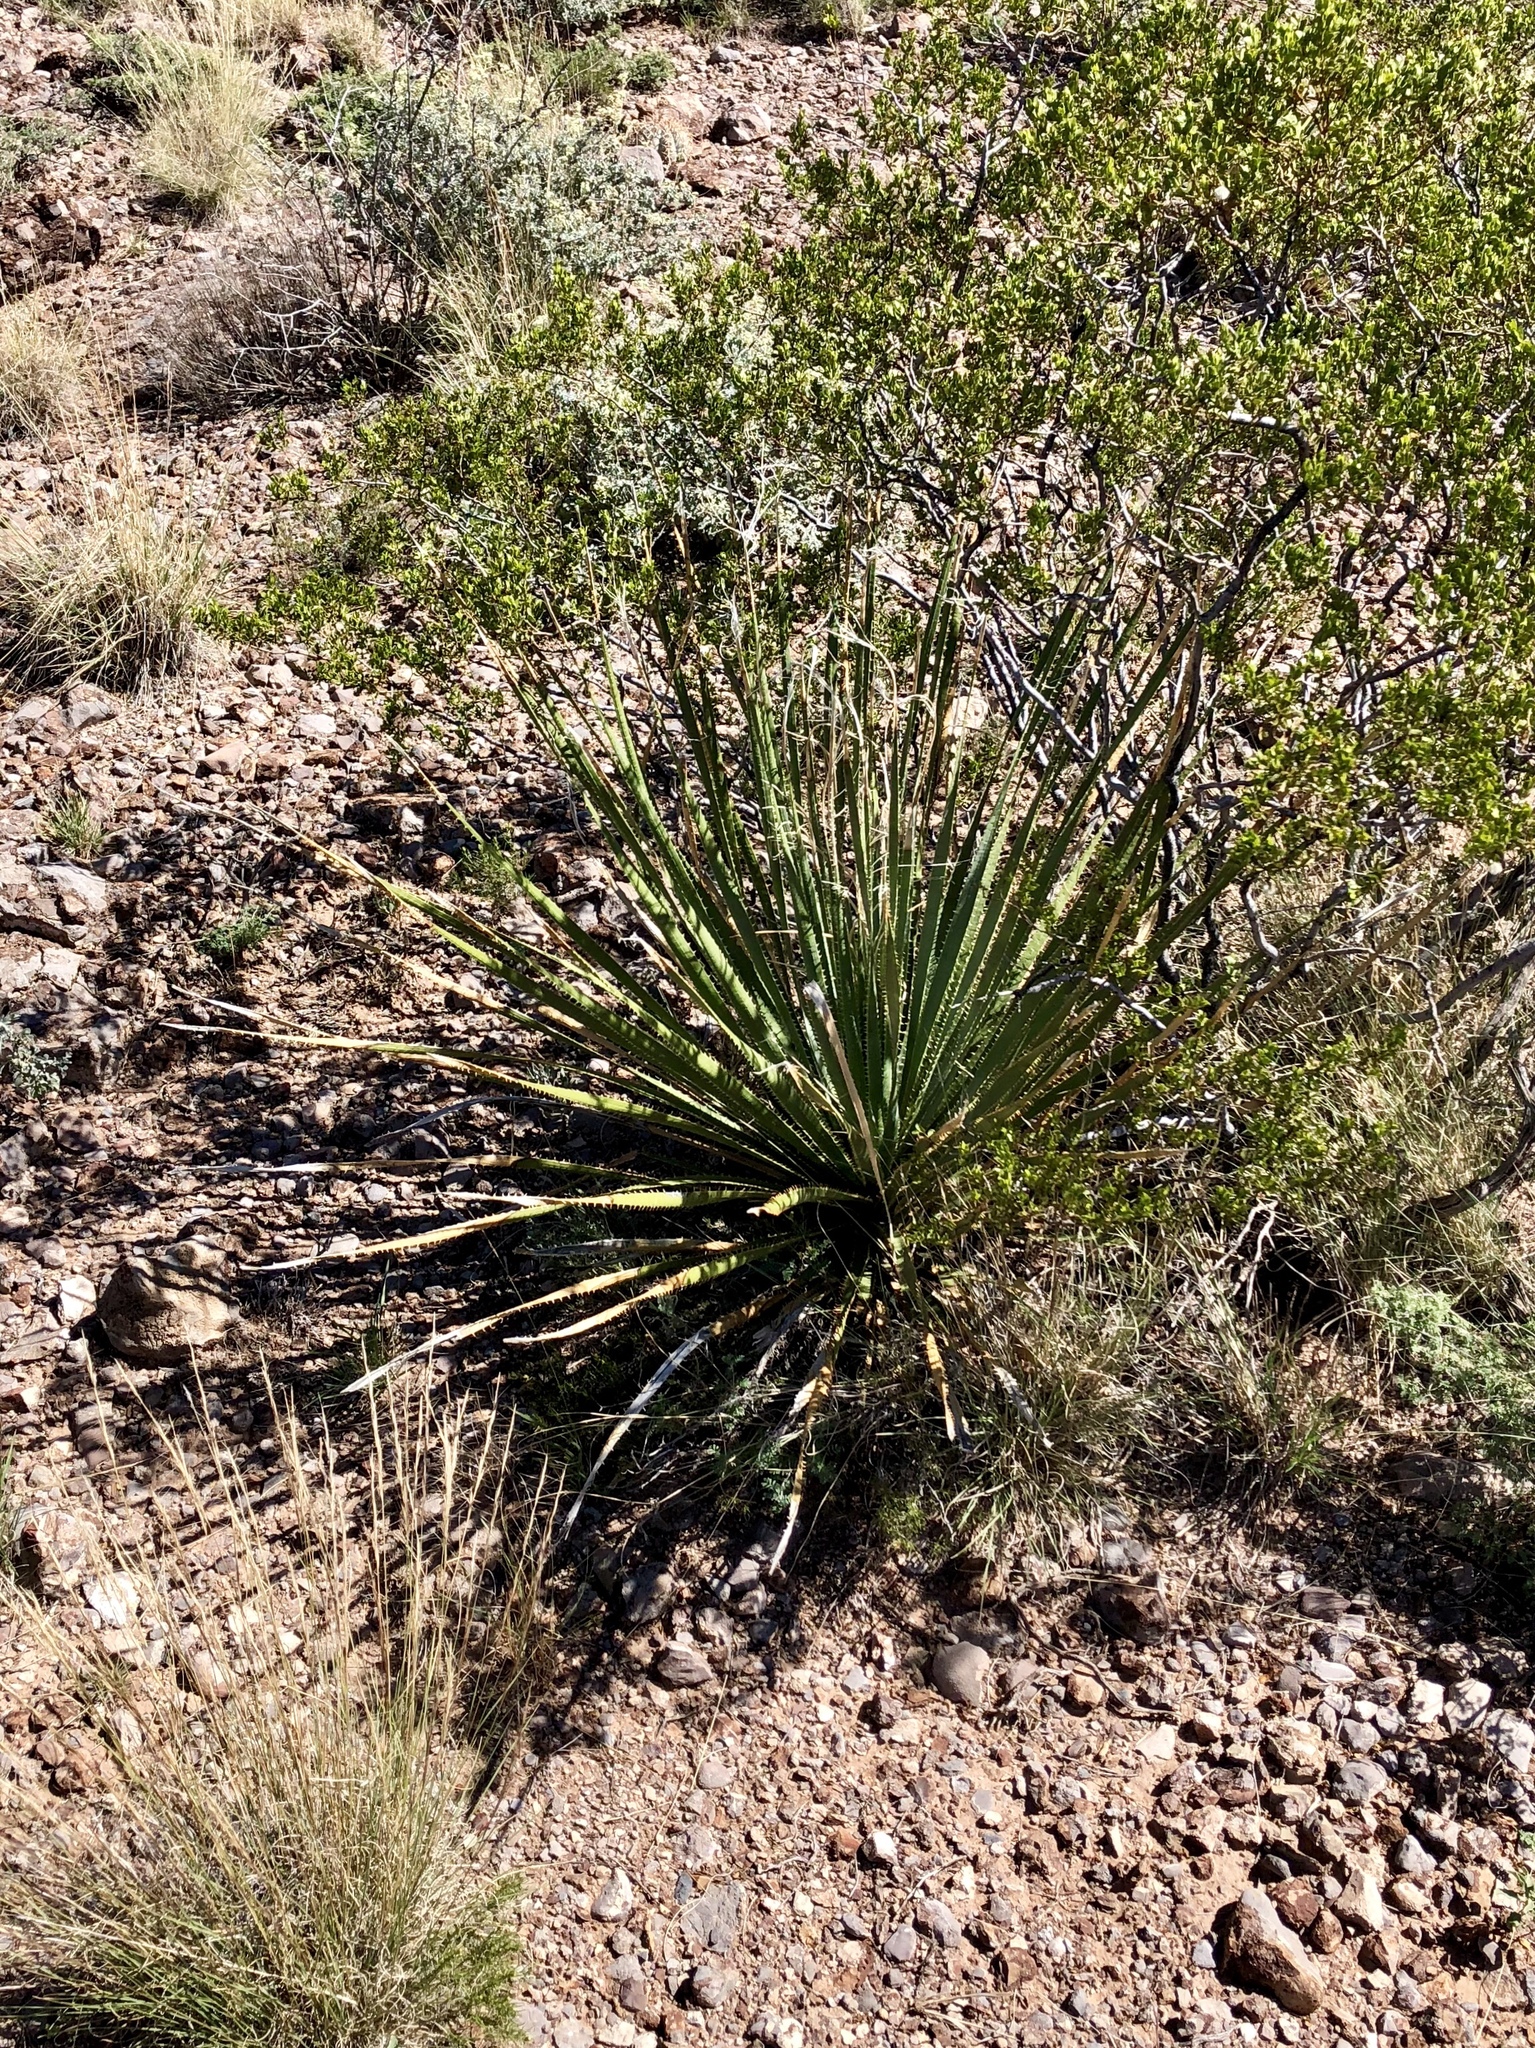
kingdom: Plantae
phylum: Tracheophyta
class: Liliopsida
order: Asparagales
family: Asparagaceae
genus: Dasylirion
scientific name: Dasylirion wheeleri
